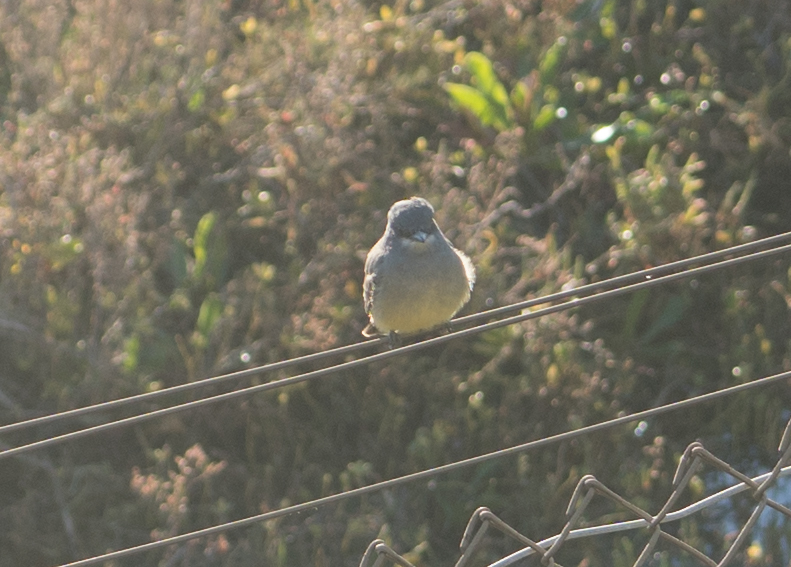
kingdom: Animalia
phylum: Chordata
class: Aves
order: Passeriformes
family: Tyrannidae
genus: Tyrannus
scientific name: Tyrannus vociferans
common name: Cassin's kingbird
